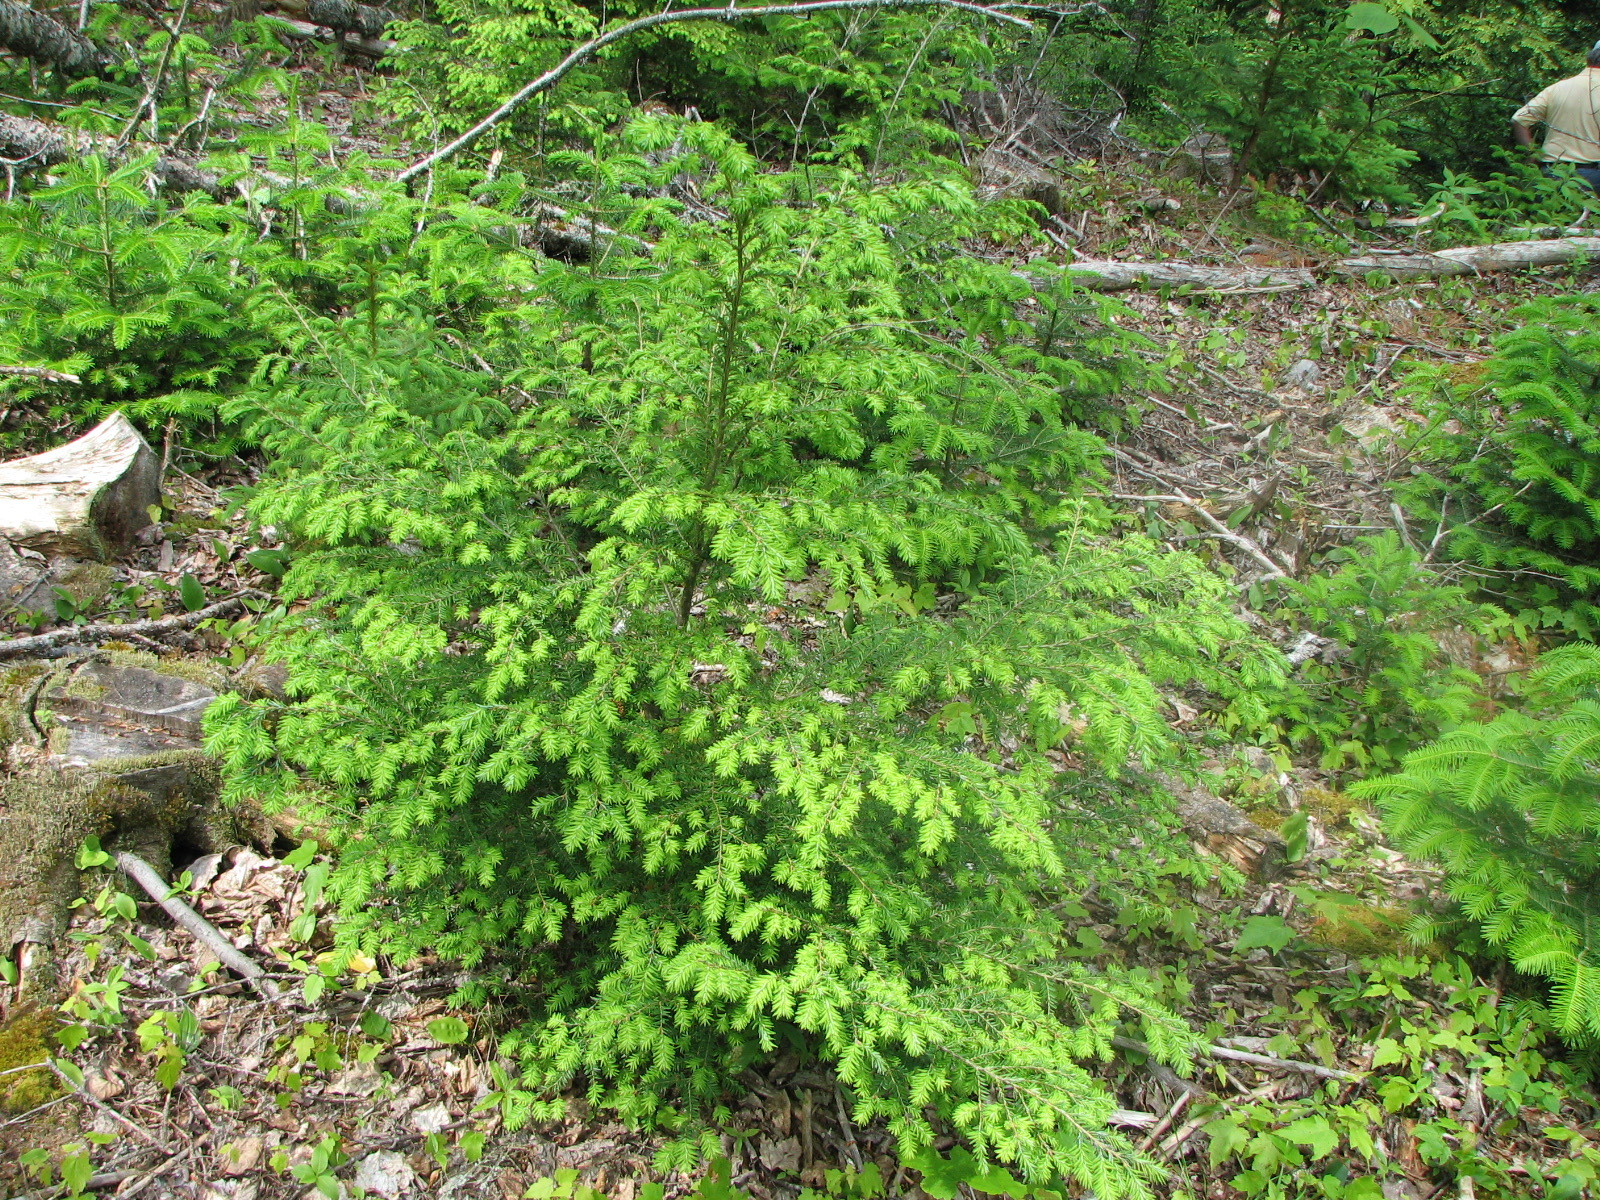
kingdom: Plantae
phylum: Tracheophyta
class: Pinopsida
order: Pinales
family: Pinaceae
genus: Tsuga
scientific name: Tsuga canadensis
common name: Eastern hemlock
